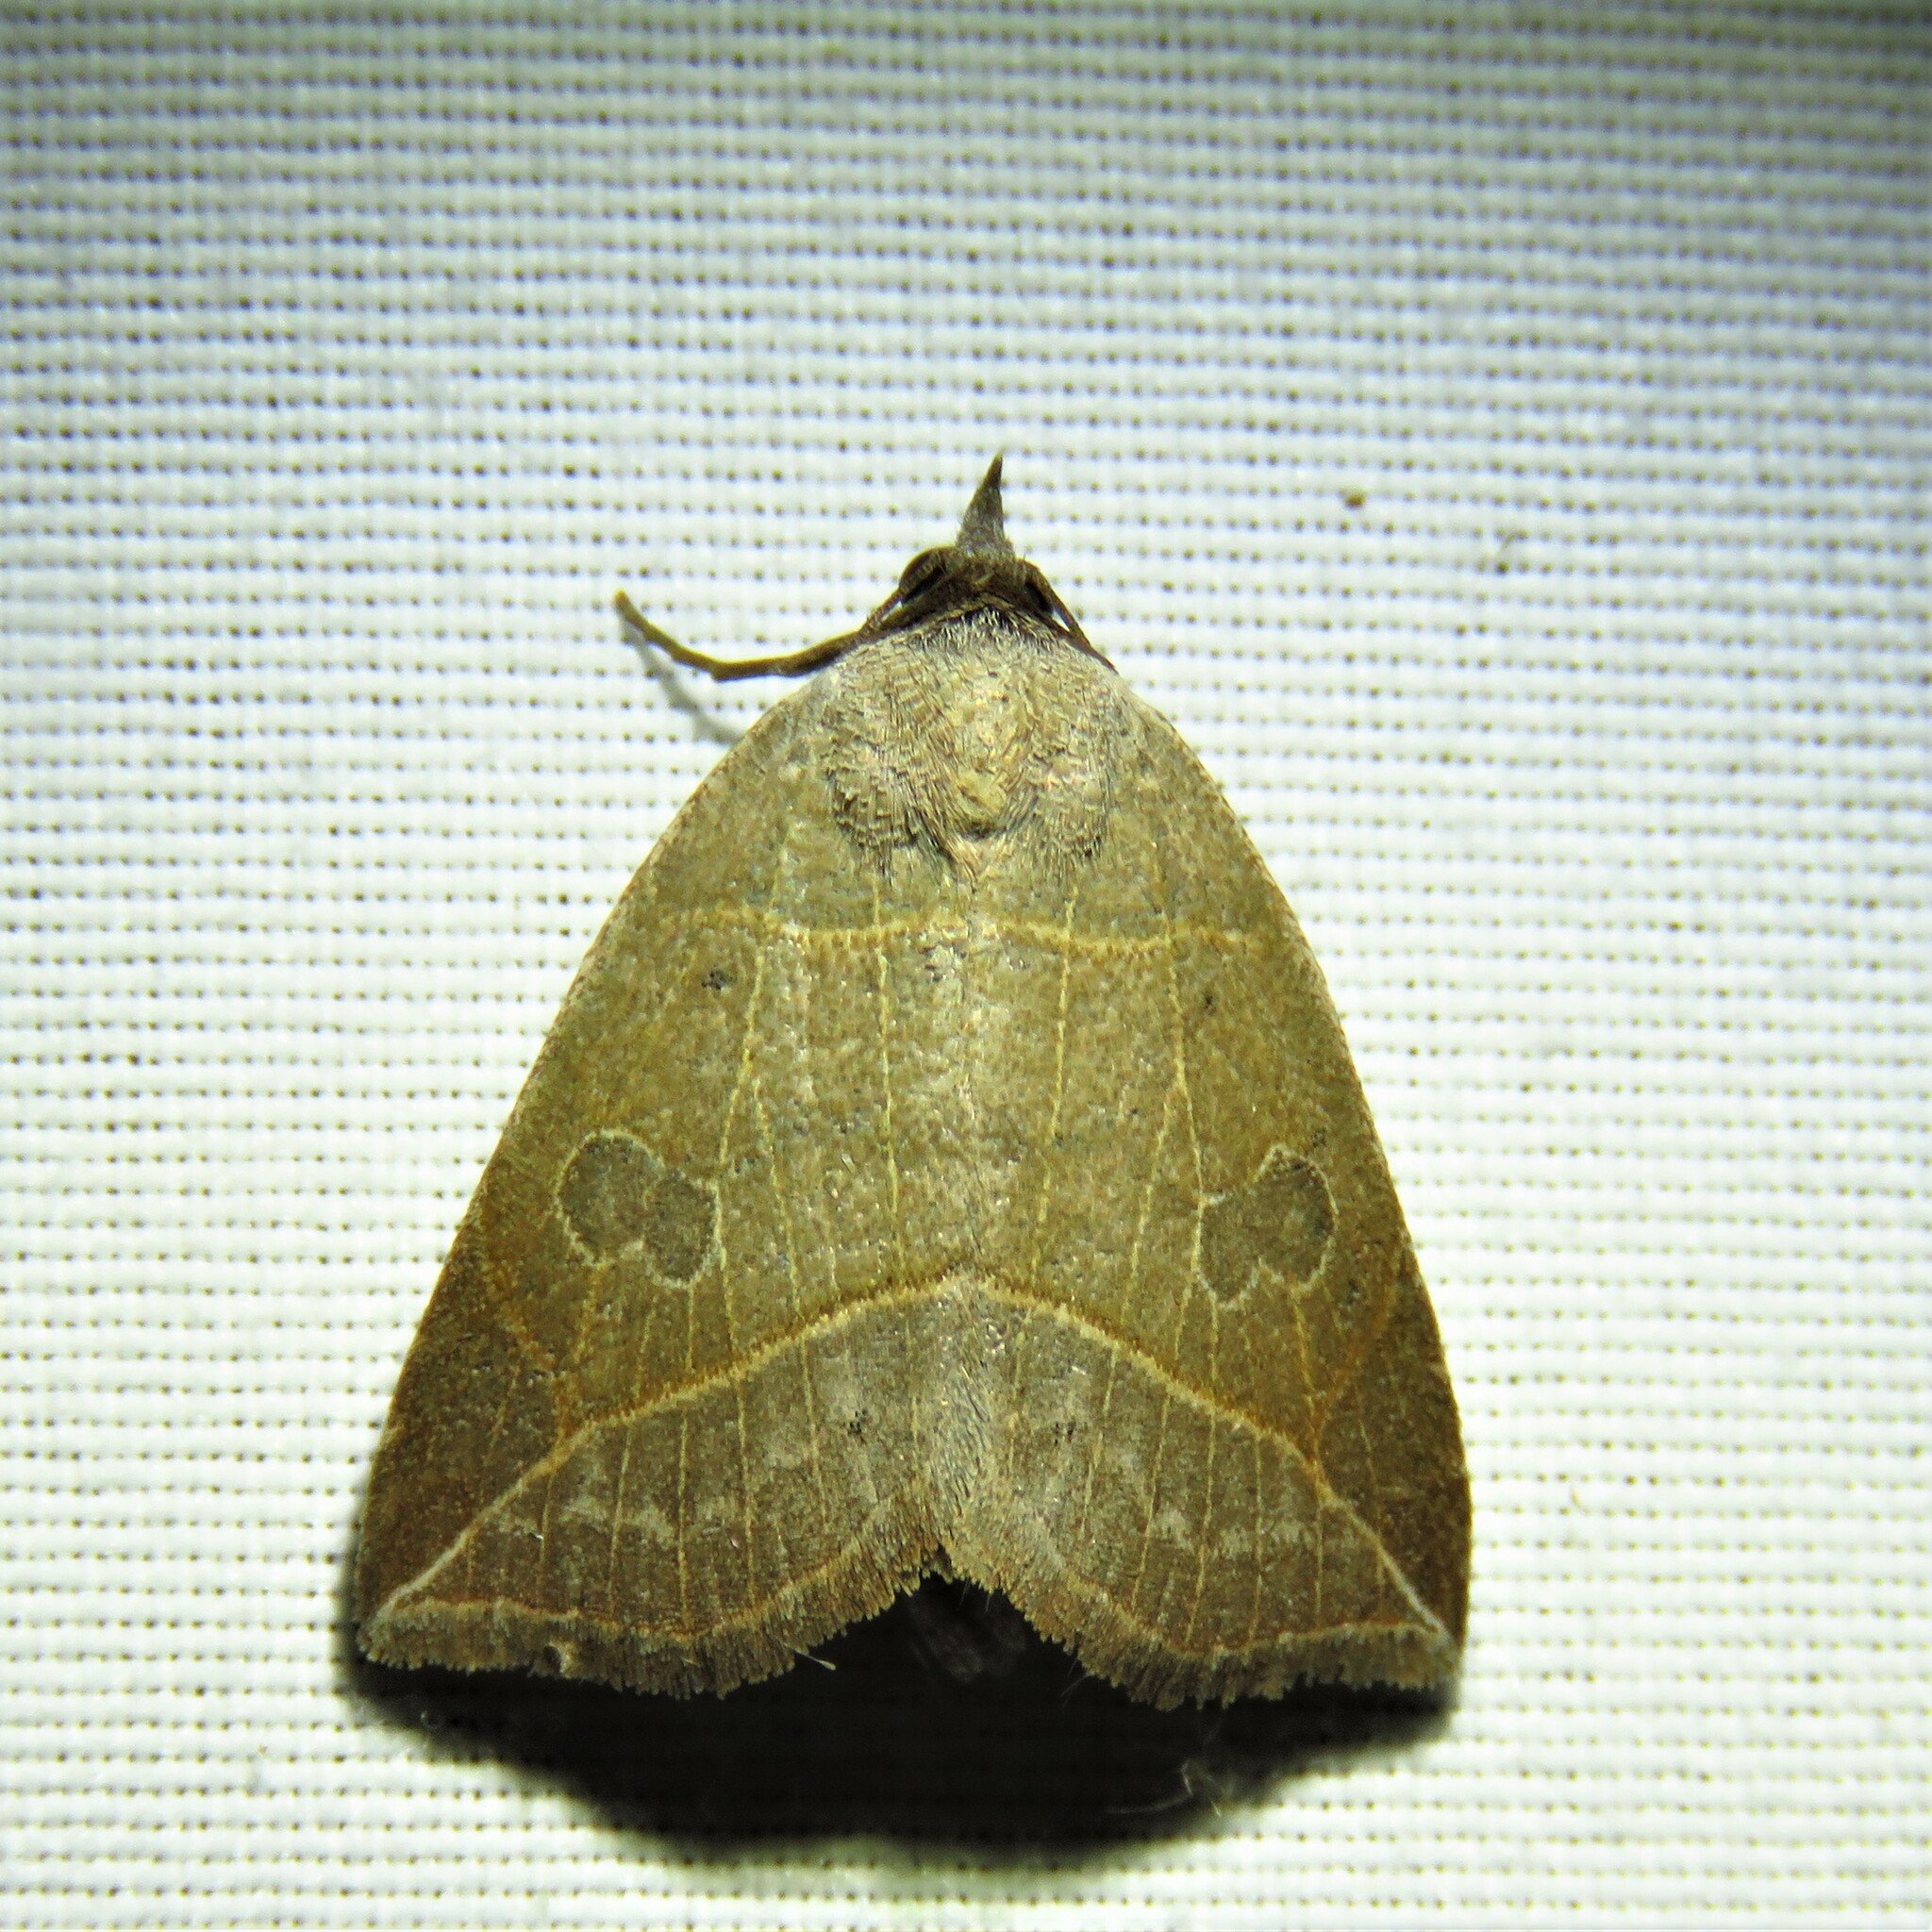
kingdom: Animalia
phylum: Arthropoda
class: Insecta
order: Lepidoptera
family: Erebidae
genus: Isogona
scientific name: Isogona tenuis
